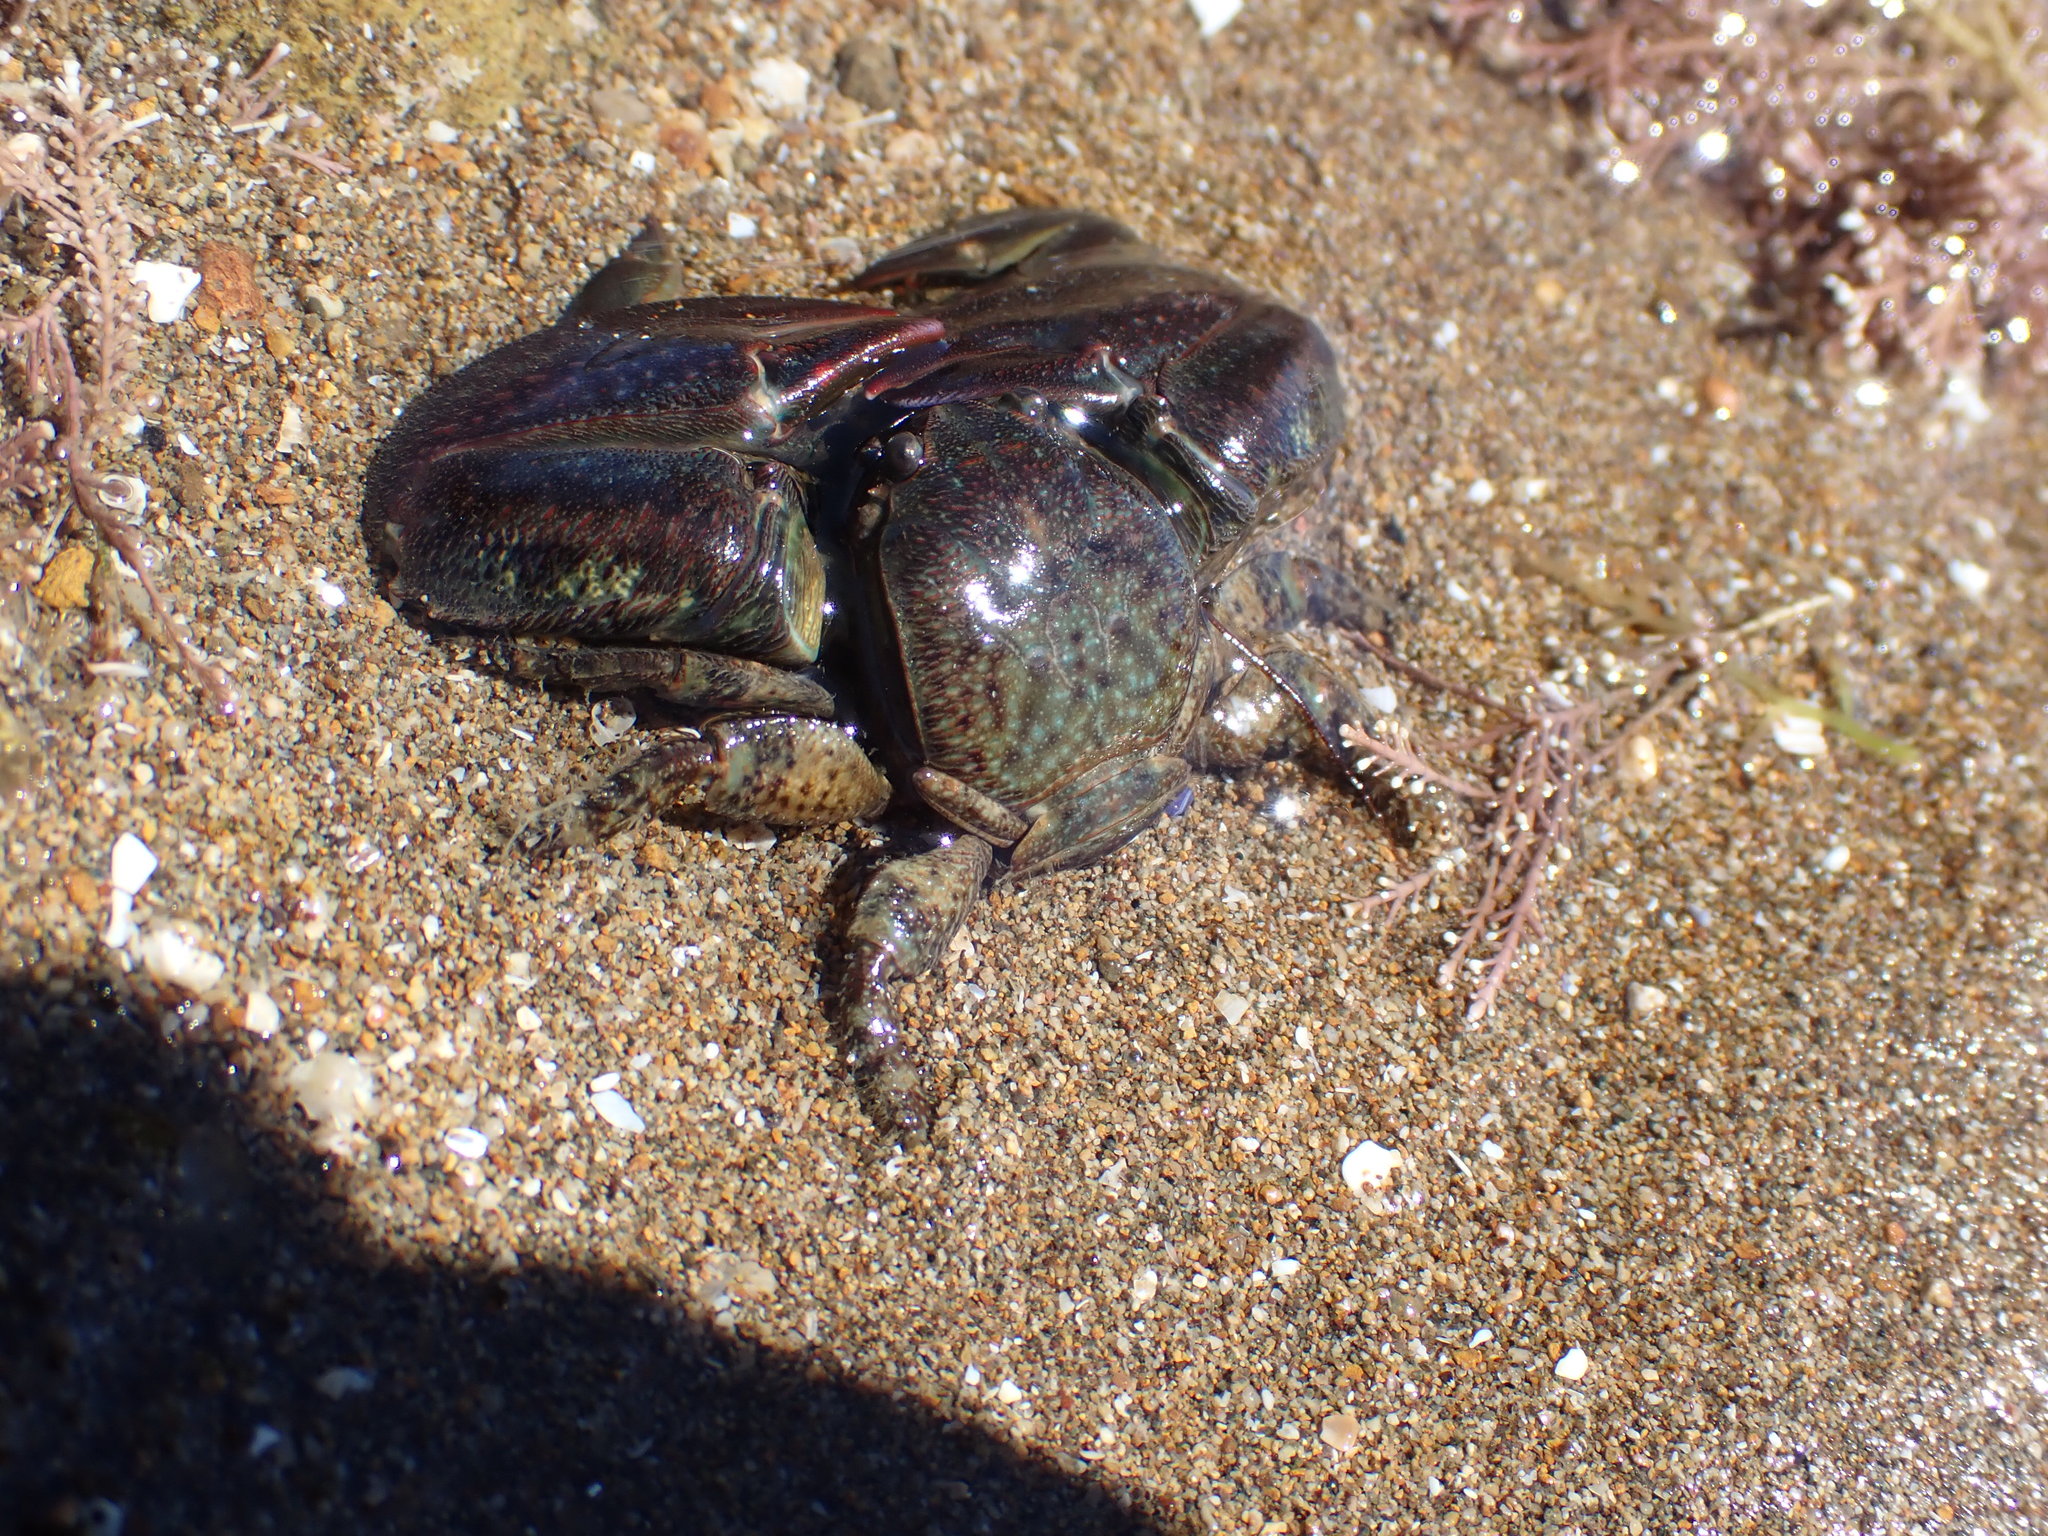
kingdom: Animalia
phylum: Arthropoda
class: Malacostraca
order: Decapoda
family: Porcellanidae
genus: Petrolisthes
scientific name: Petrolisthes elongatus
